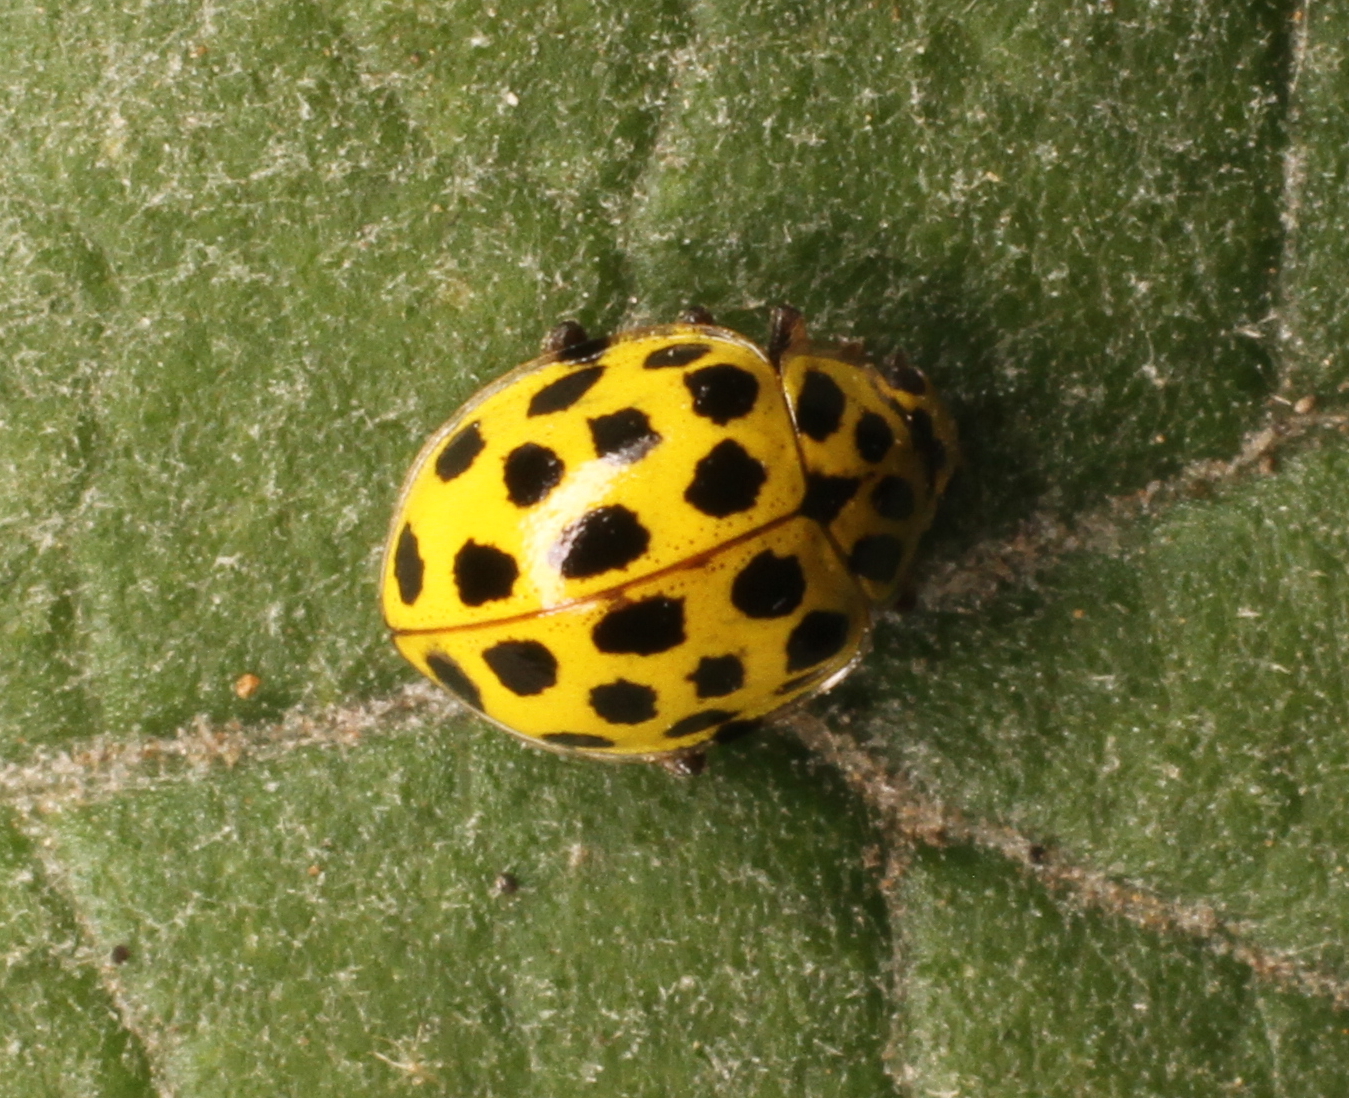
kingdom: Animalia
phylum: Arthropoda
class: Insecta
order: Coleoptera
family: Coccinellidae
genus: Psyllobora
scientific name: Psyllobora vigintiduopunctata
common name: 22-spot ladybird
